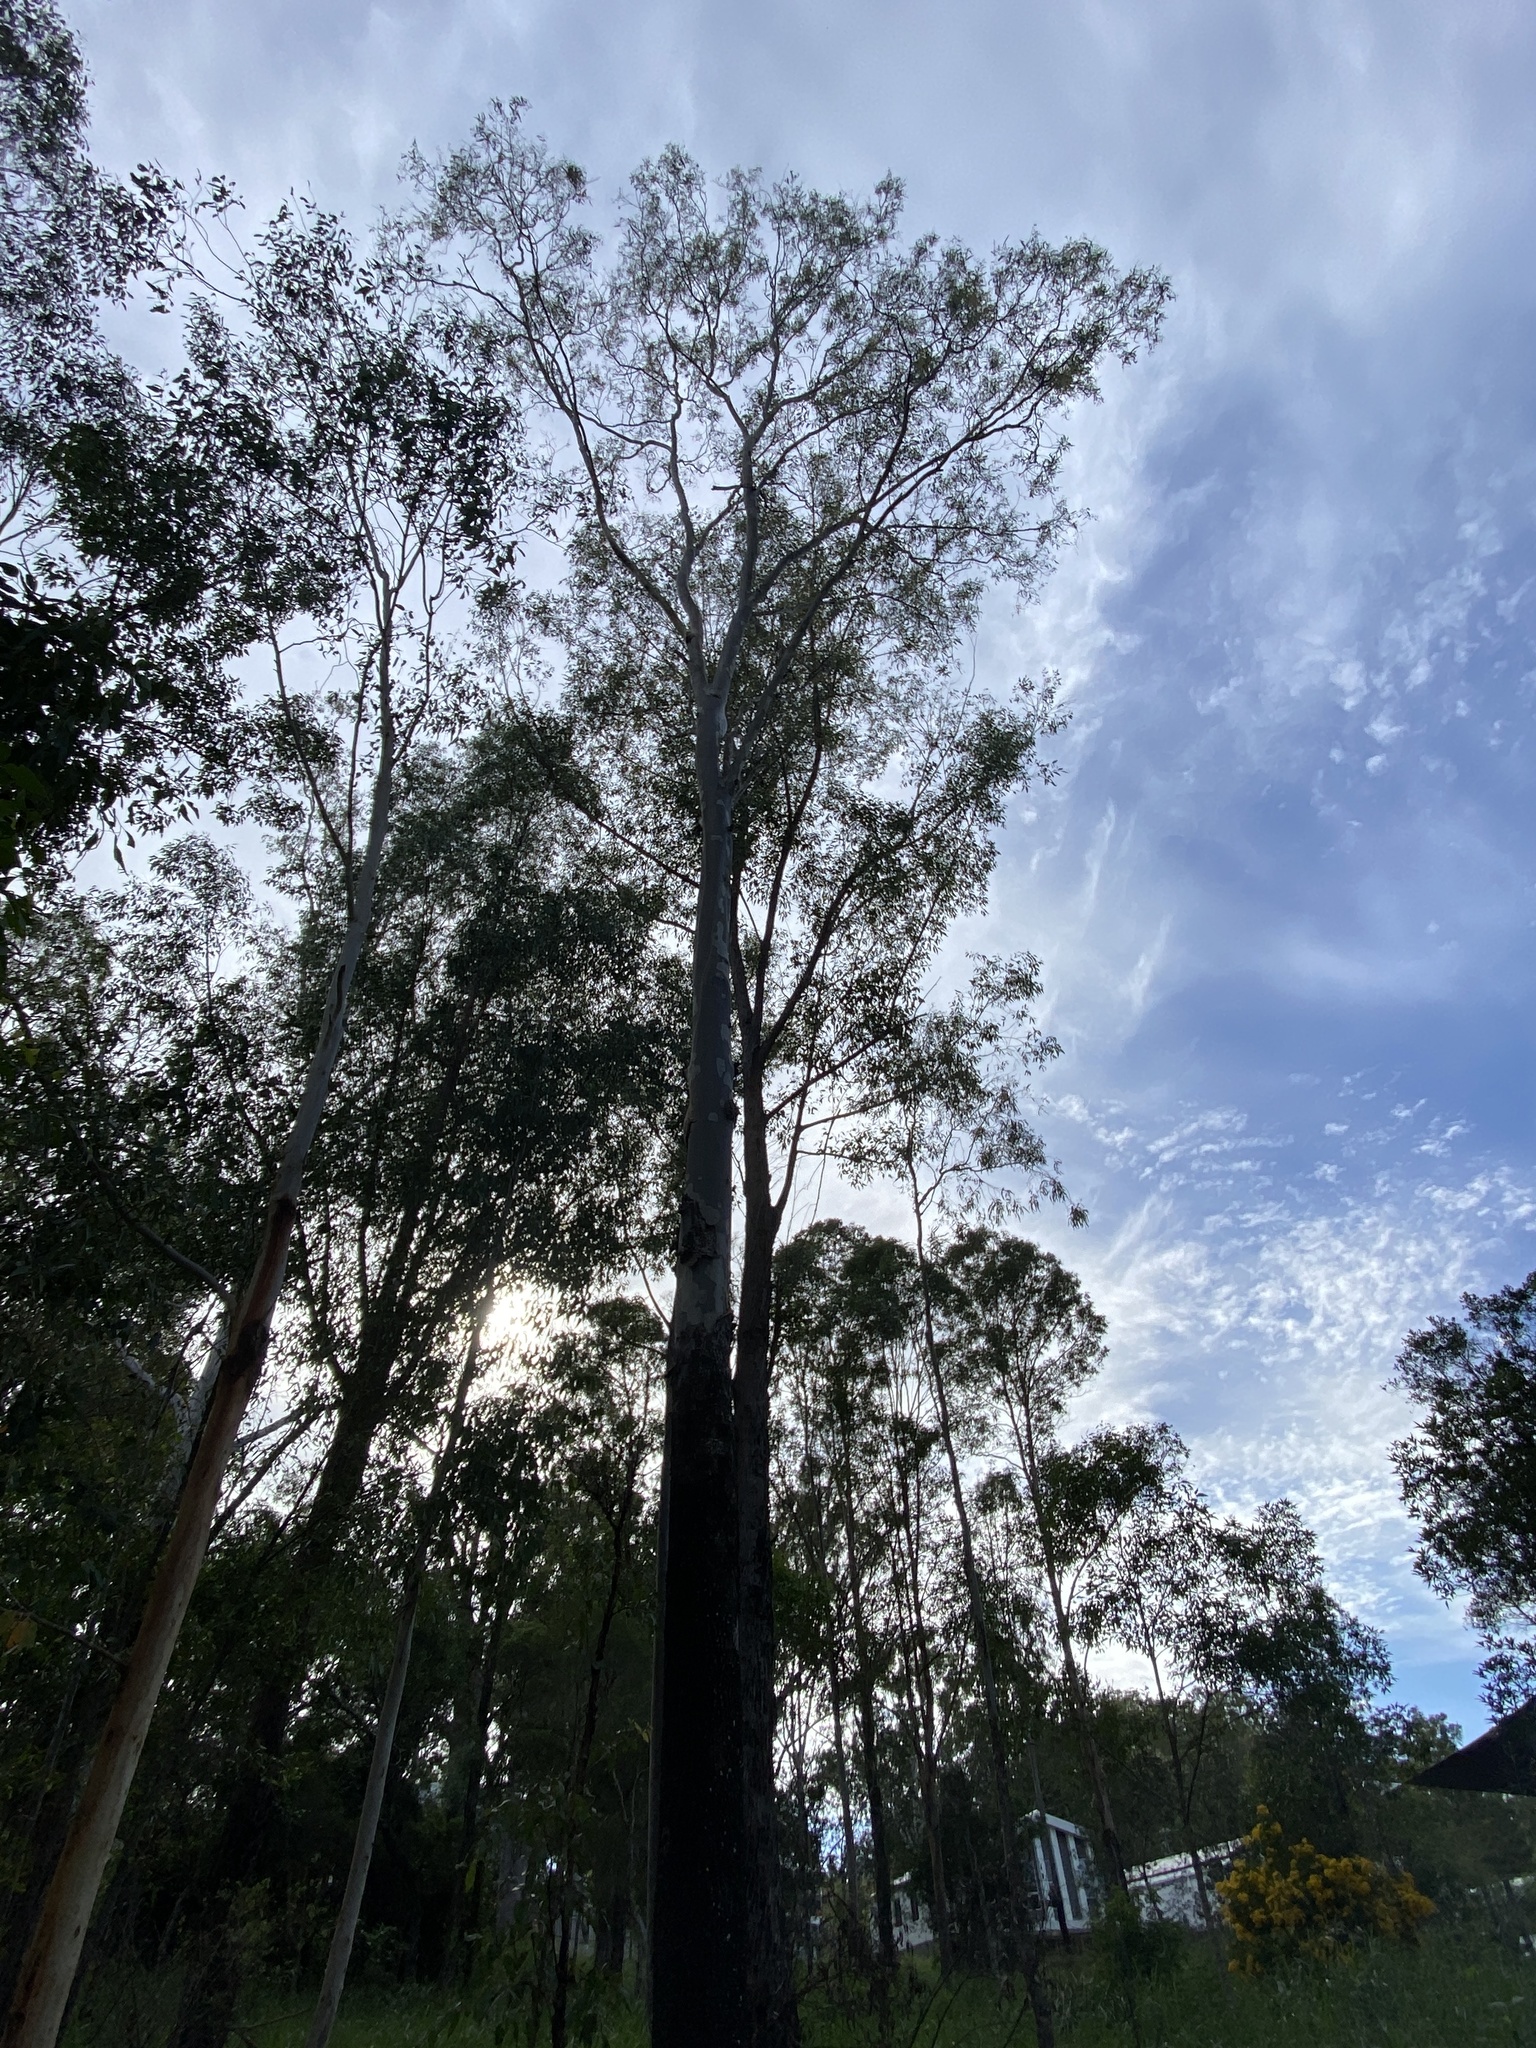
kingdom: Plantae
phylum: Tracheophyta
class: Magnoliopsida
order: Myrtales
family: Myrtaceae
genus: Corymbia
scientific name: Corymbia tessellaris
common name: Carbeen
